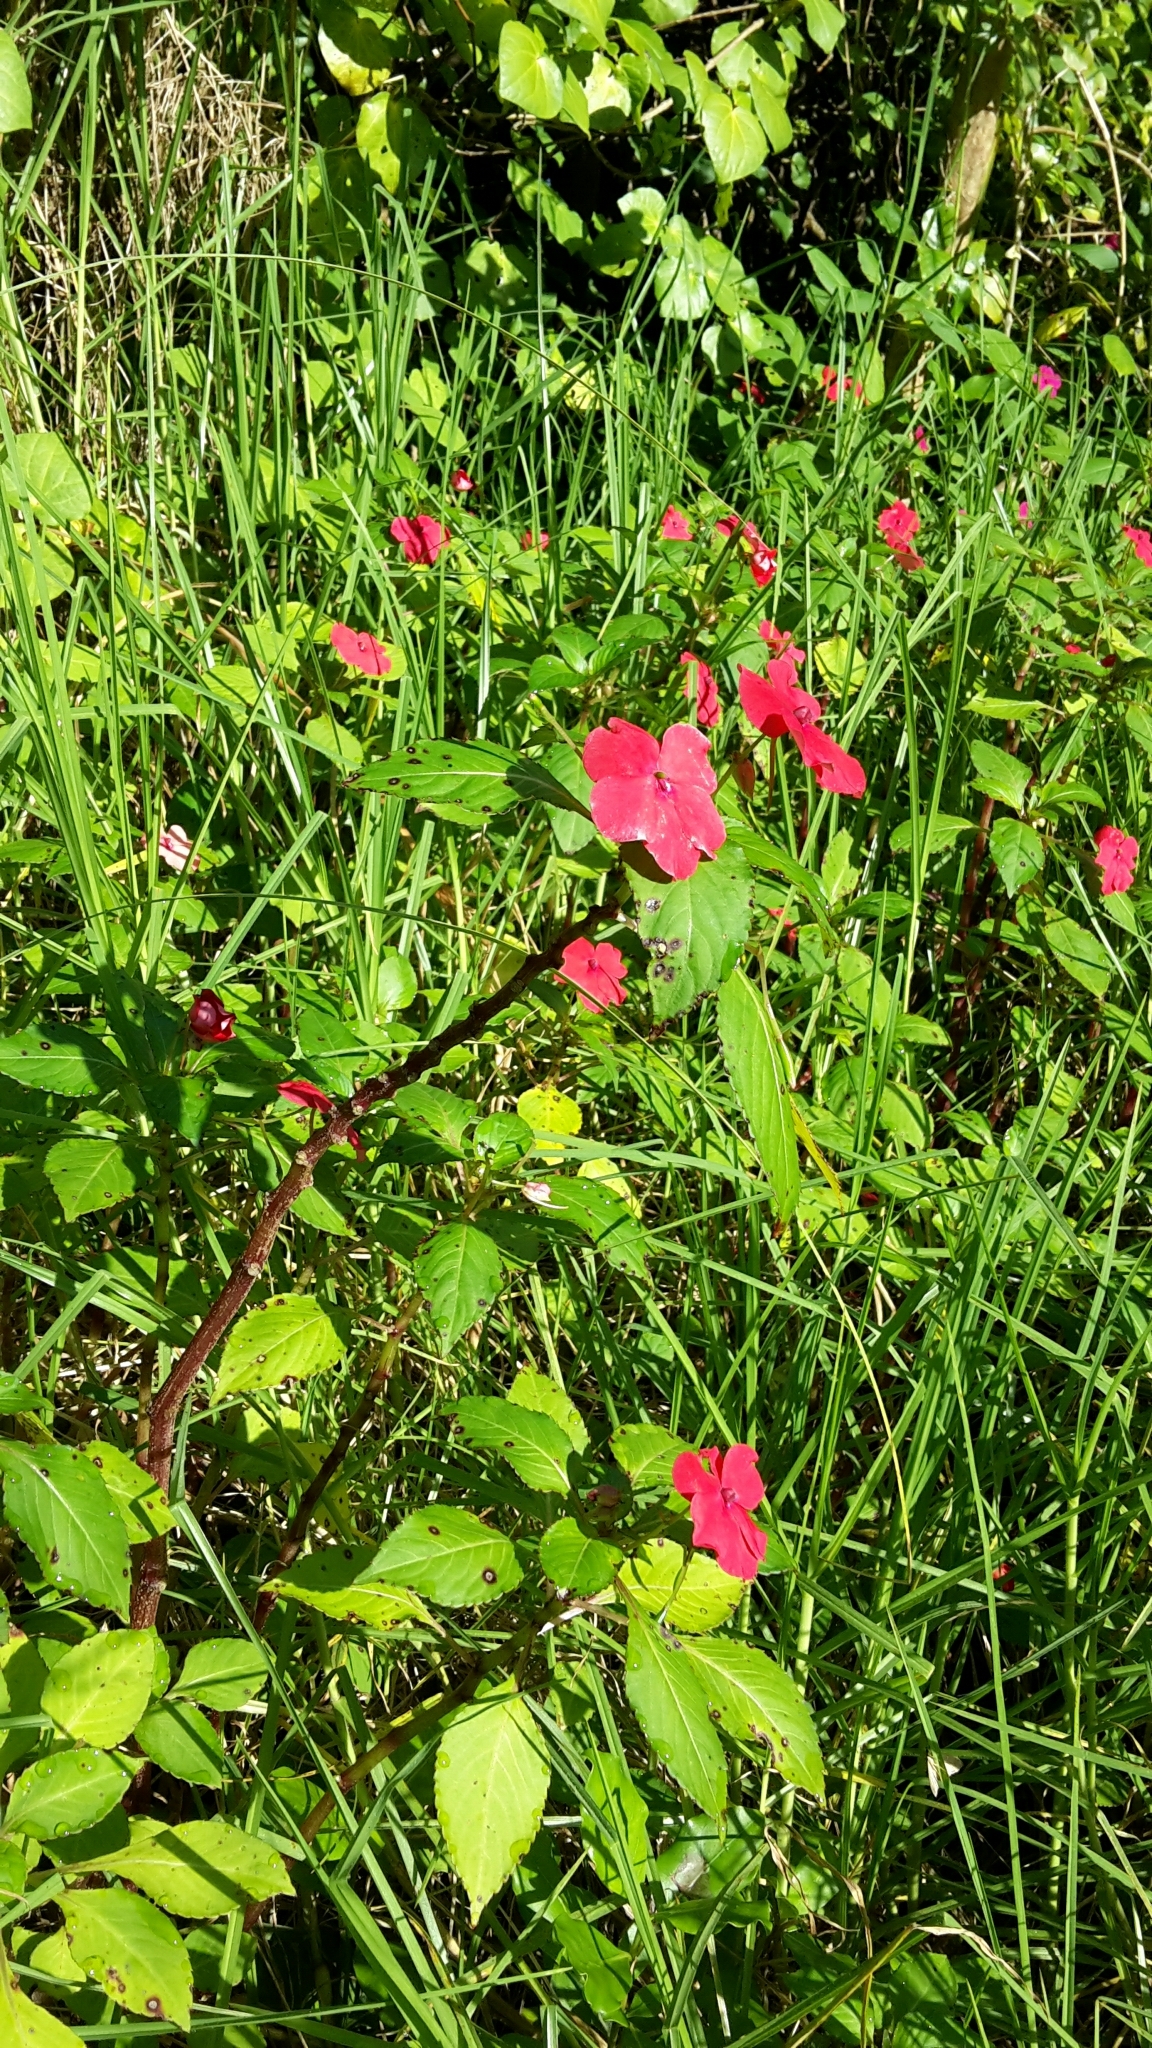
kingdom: Plantae
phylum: Tracheophyta
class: Magnoliopsida
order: Ericales
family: Balsaminaceae
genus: Impatiens
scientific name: Impatiens walleriana
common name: Buzzy lizzy
